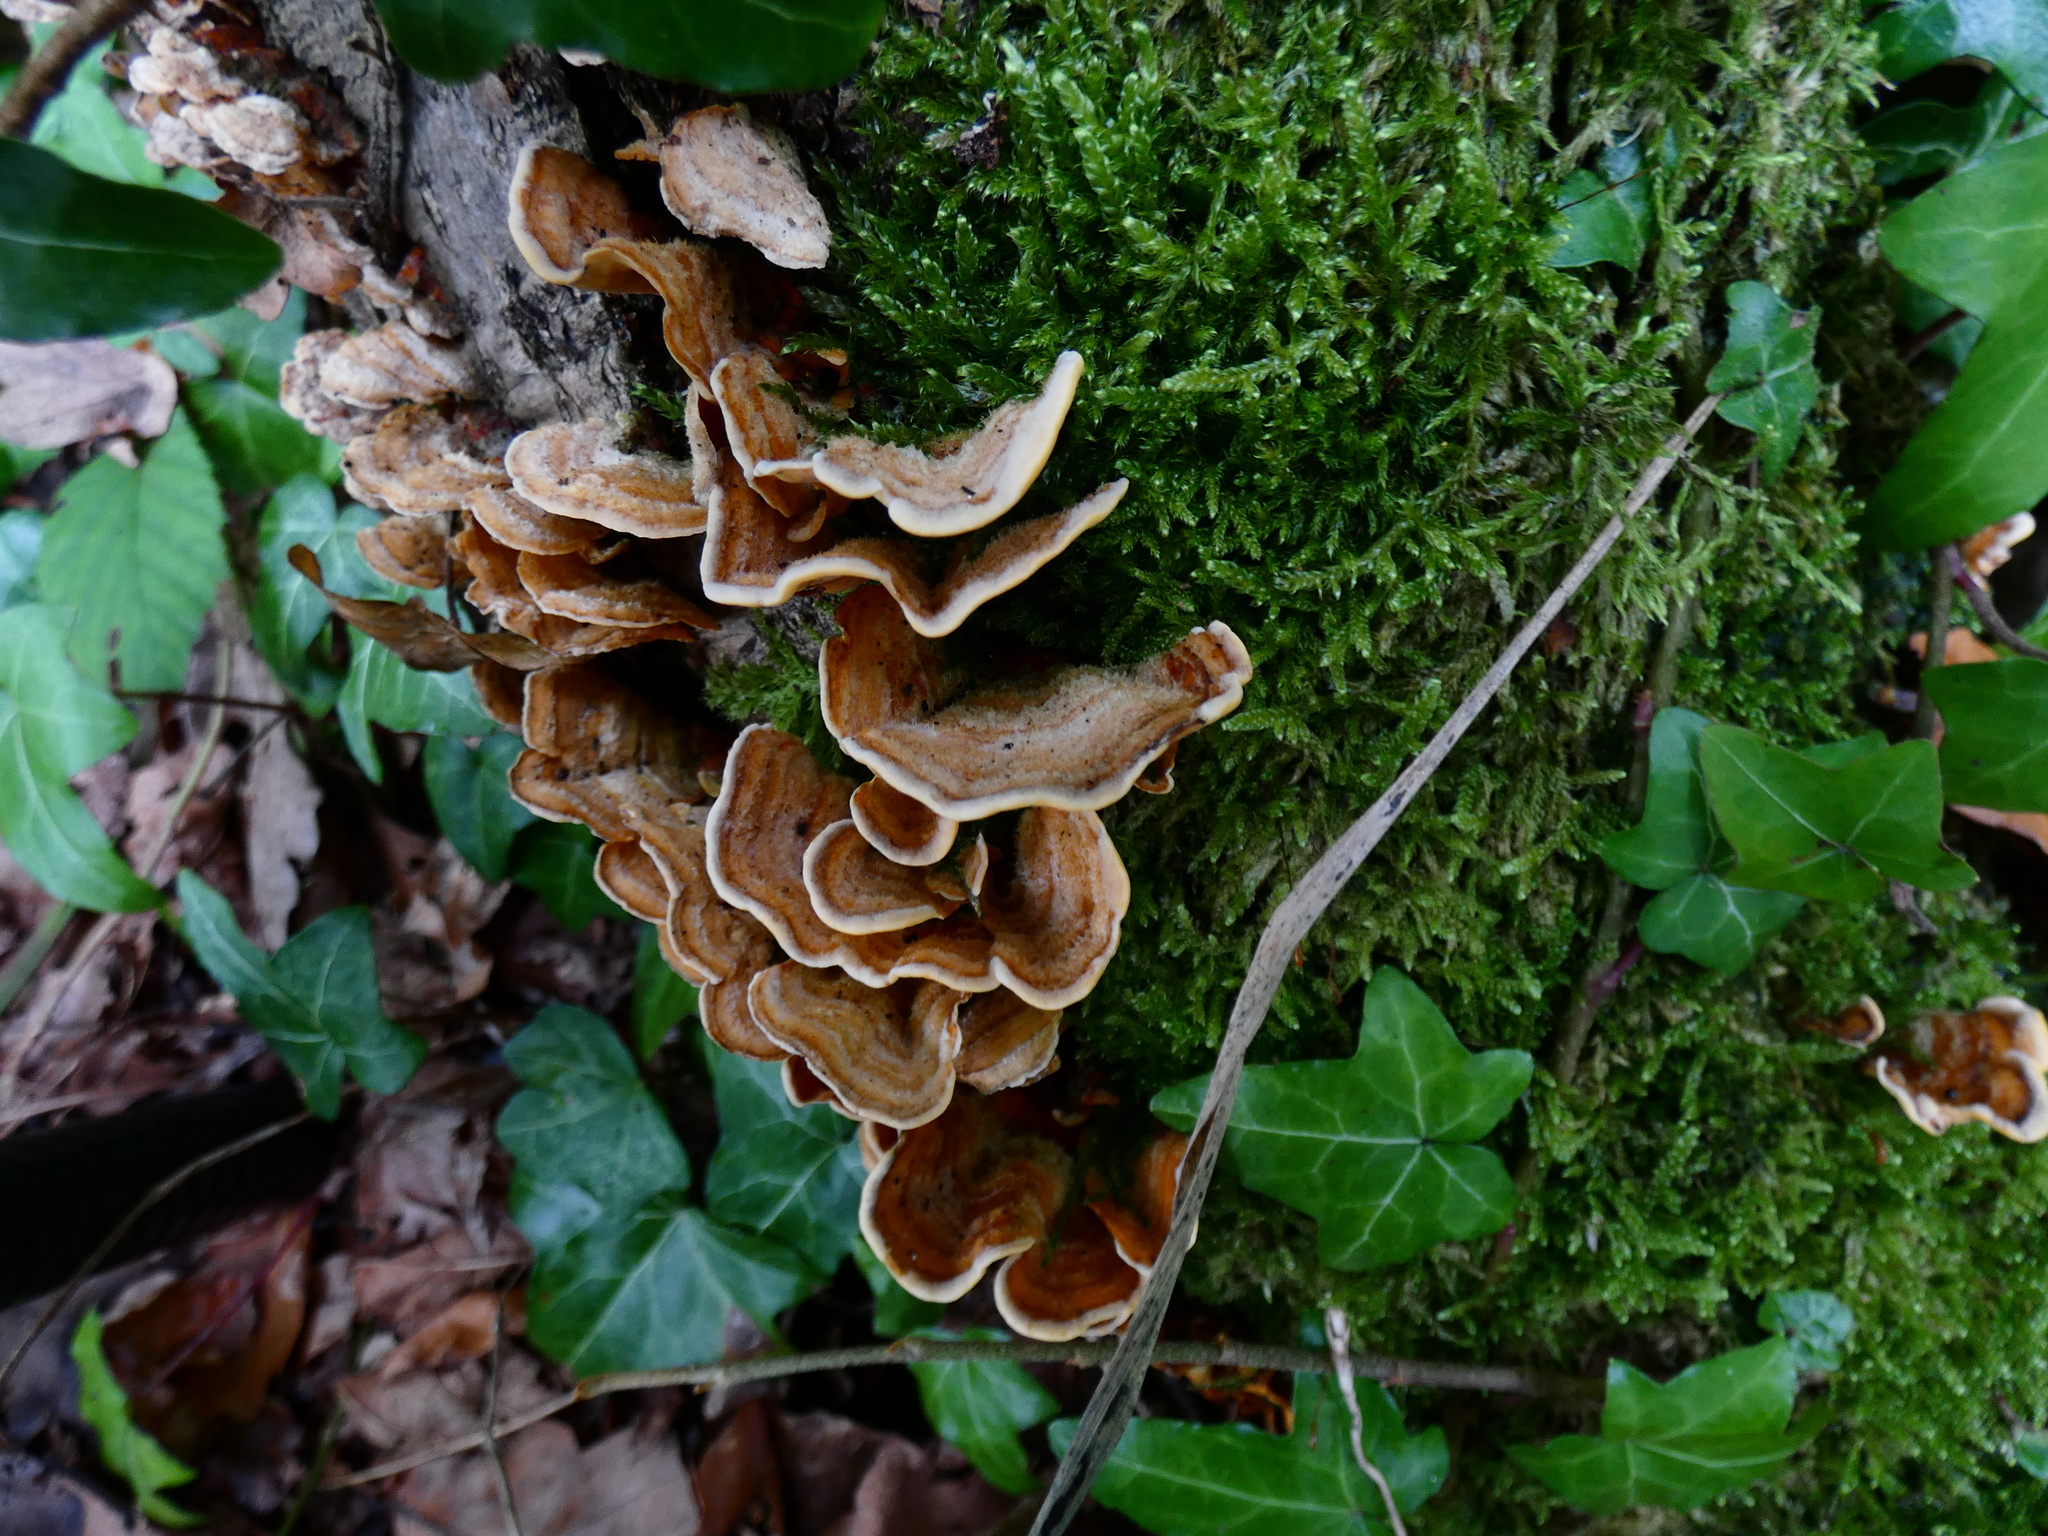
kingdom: Fungi
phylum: Basidiomycota
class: Agaricomycetes
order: Russulales
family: Stereaceae
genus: Stereum
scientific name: Stereum hirsutum
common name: Hairy curtain crust
